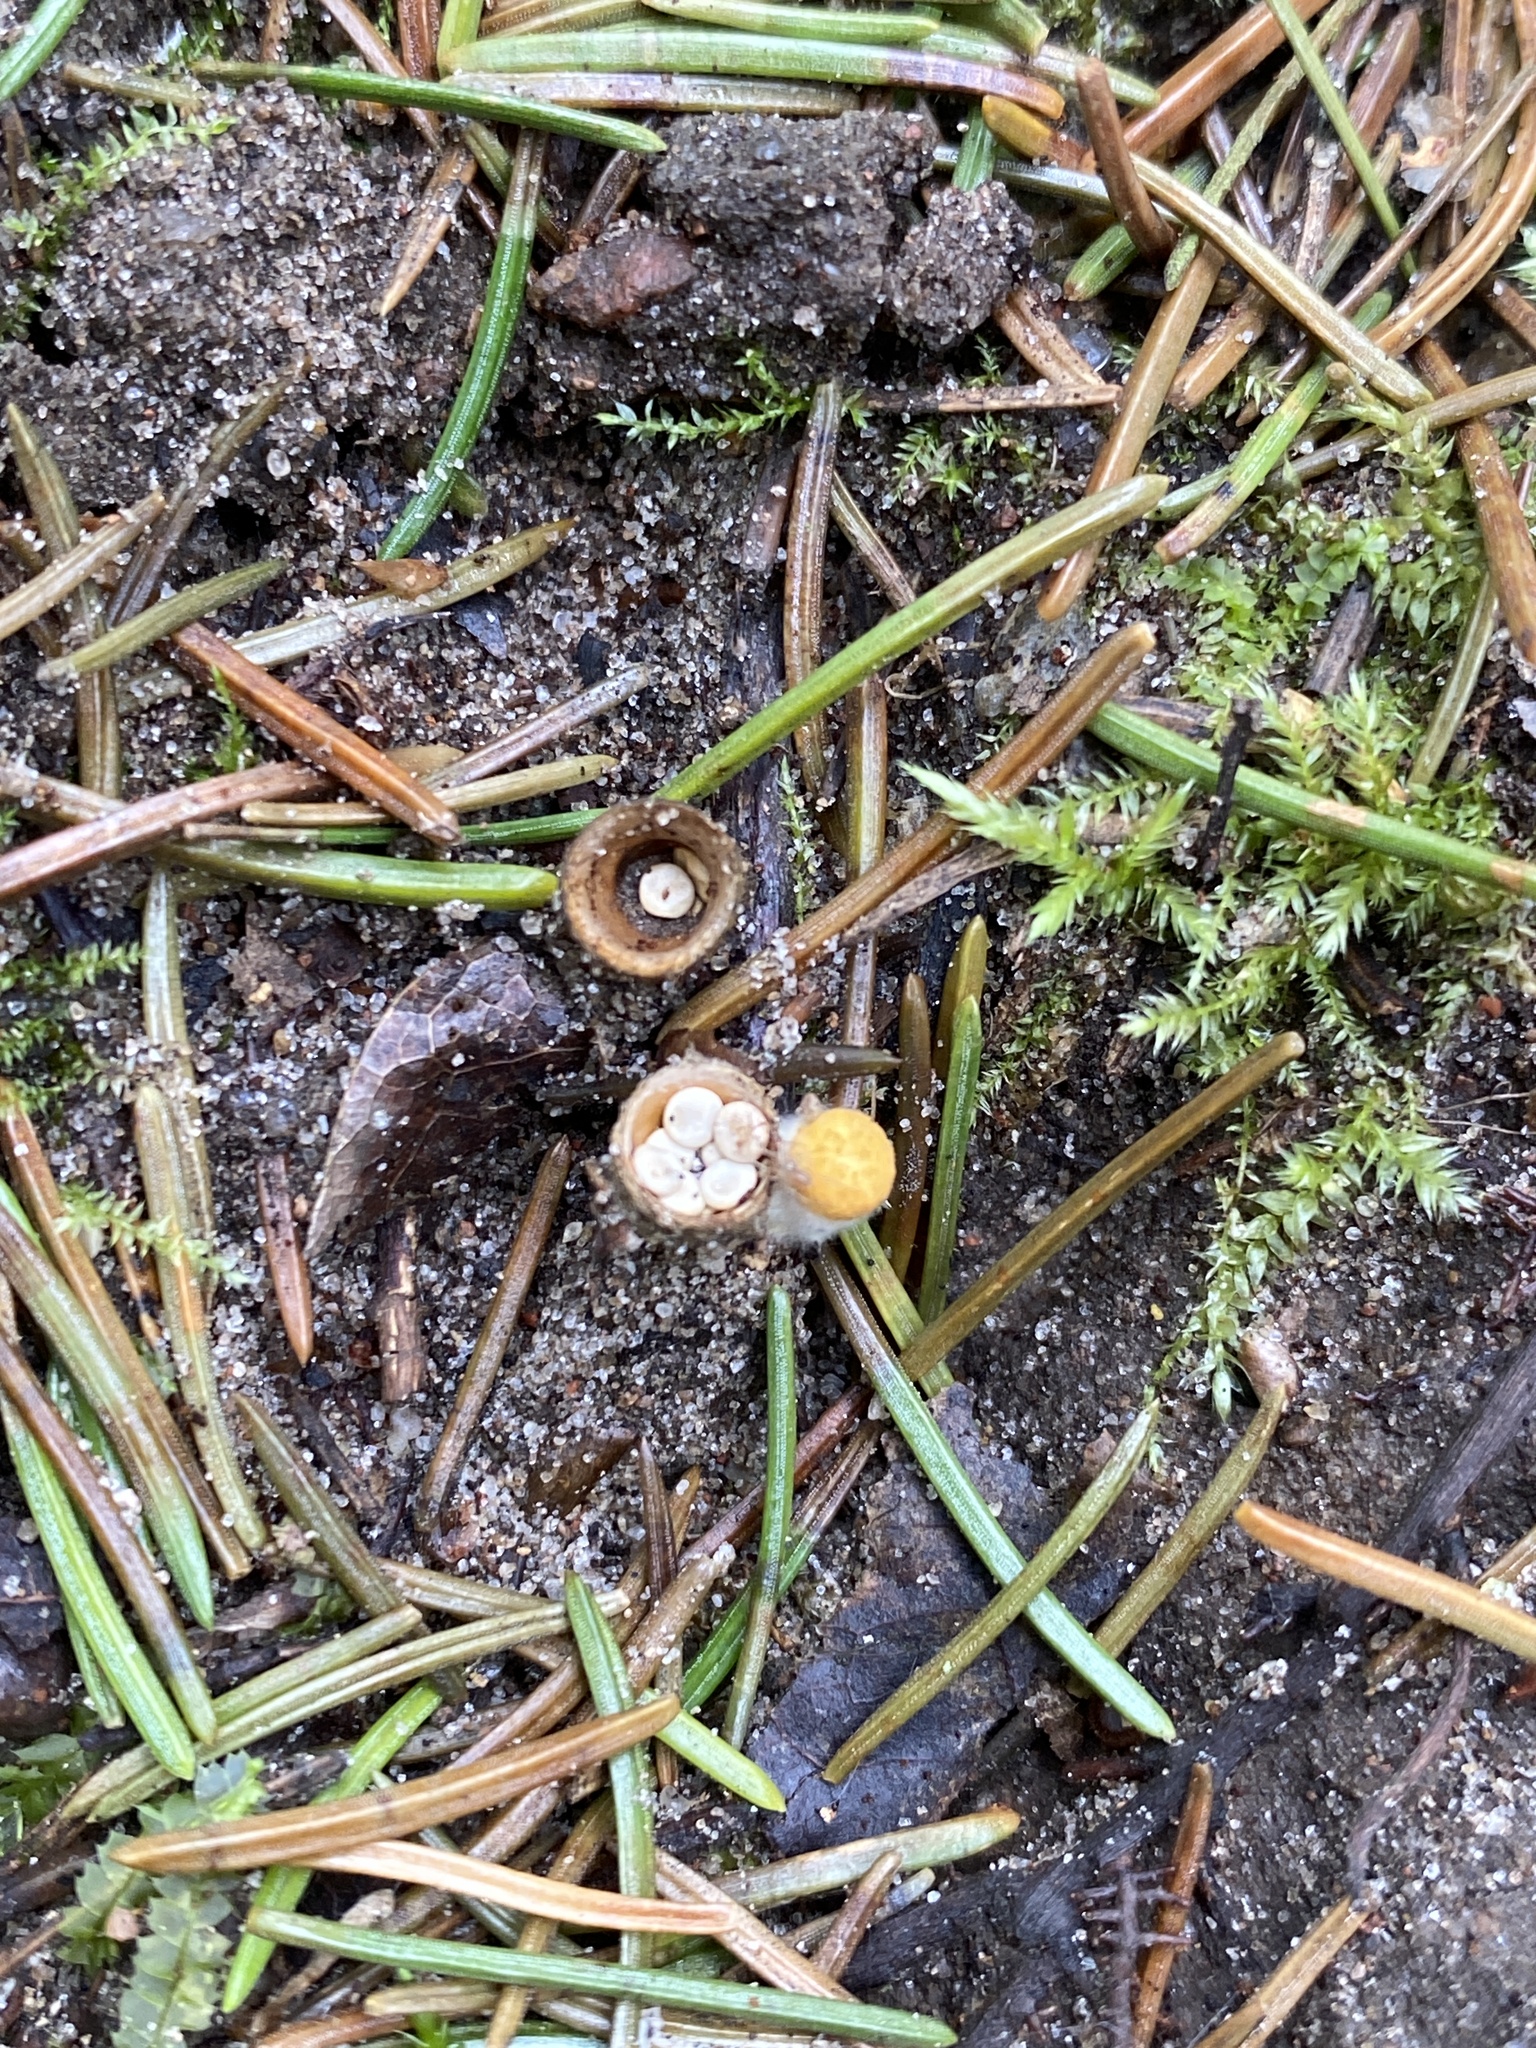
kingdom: Fungi
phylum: Basidiomycota
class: Agaricomycetes
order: Agaricales
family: Nidulariaceae
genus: Crucibulum
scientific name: Crucibulum laeve
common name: Common bird's nest
